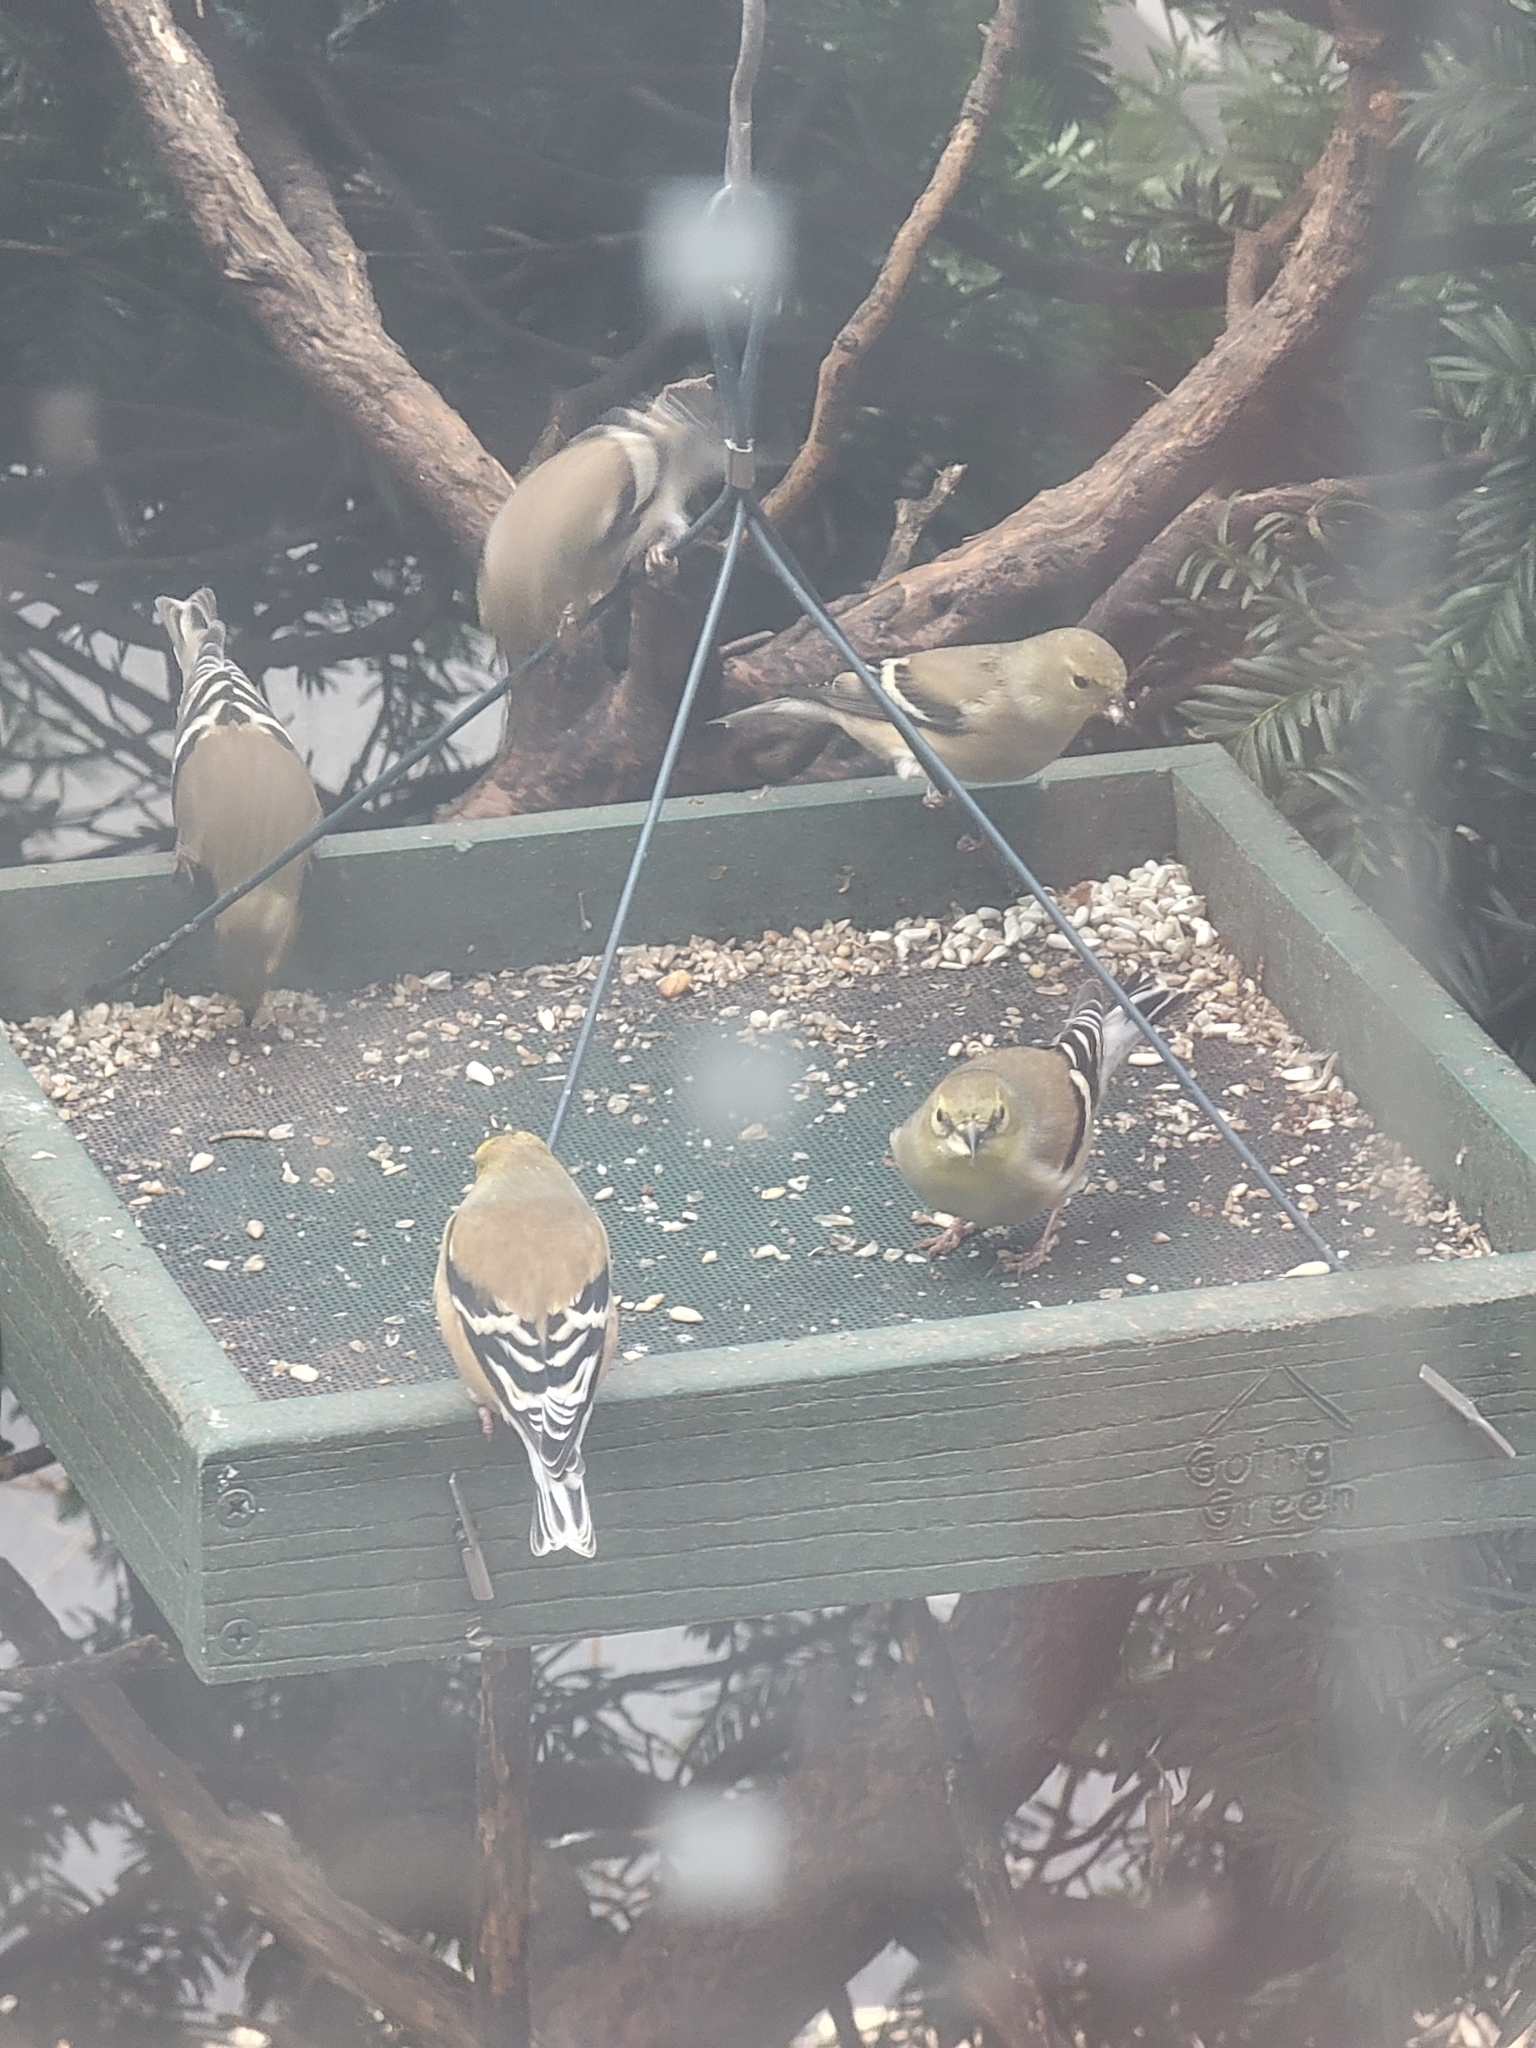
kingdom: Animalia
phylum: Chordata
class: Aves
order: Passeriformes
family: Fringillidae
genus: Spinus
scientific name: Spinus tristis
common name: American goldfinch
